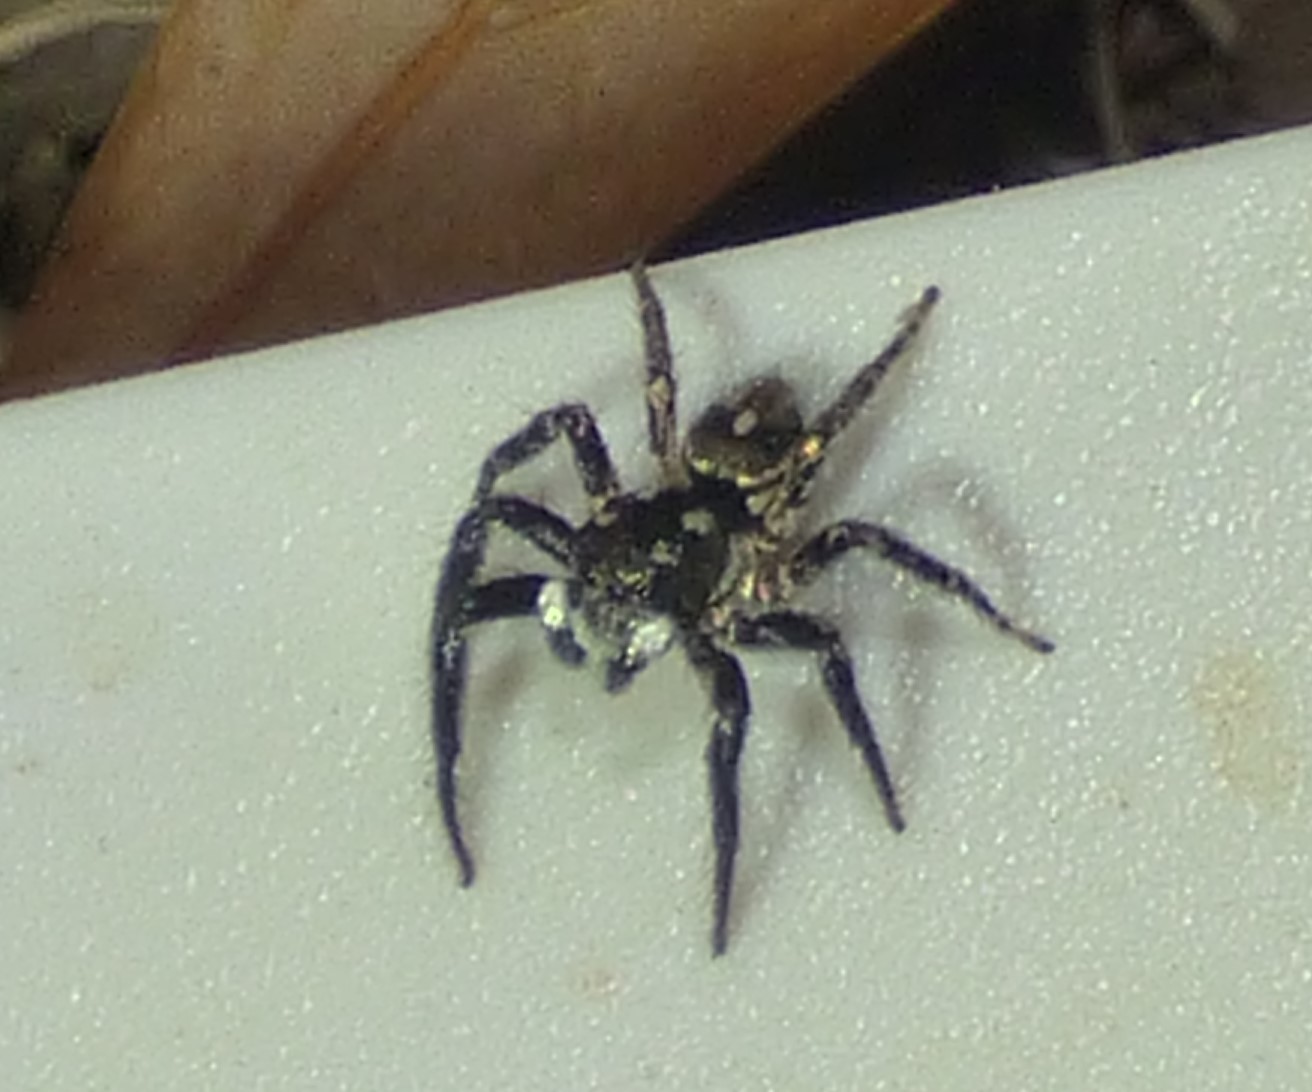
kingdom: Animalia
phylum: Arthropoda
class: Arachnida
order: Araneae
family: Salticidae
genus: Anasaitis
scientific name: Anasaitis canosa
